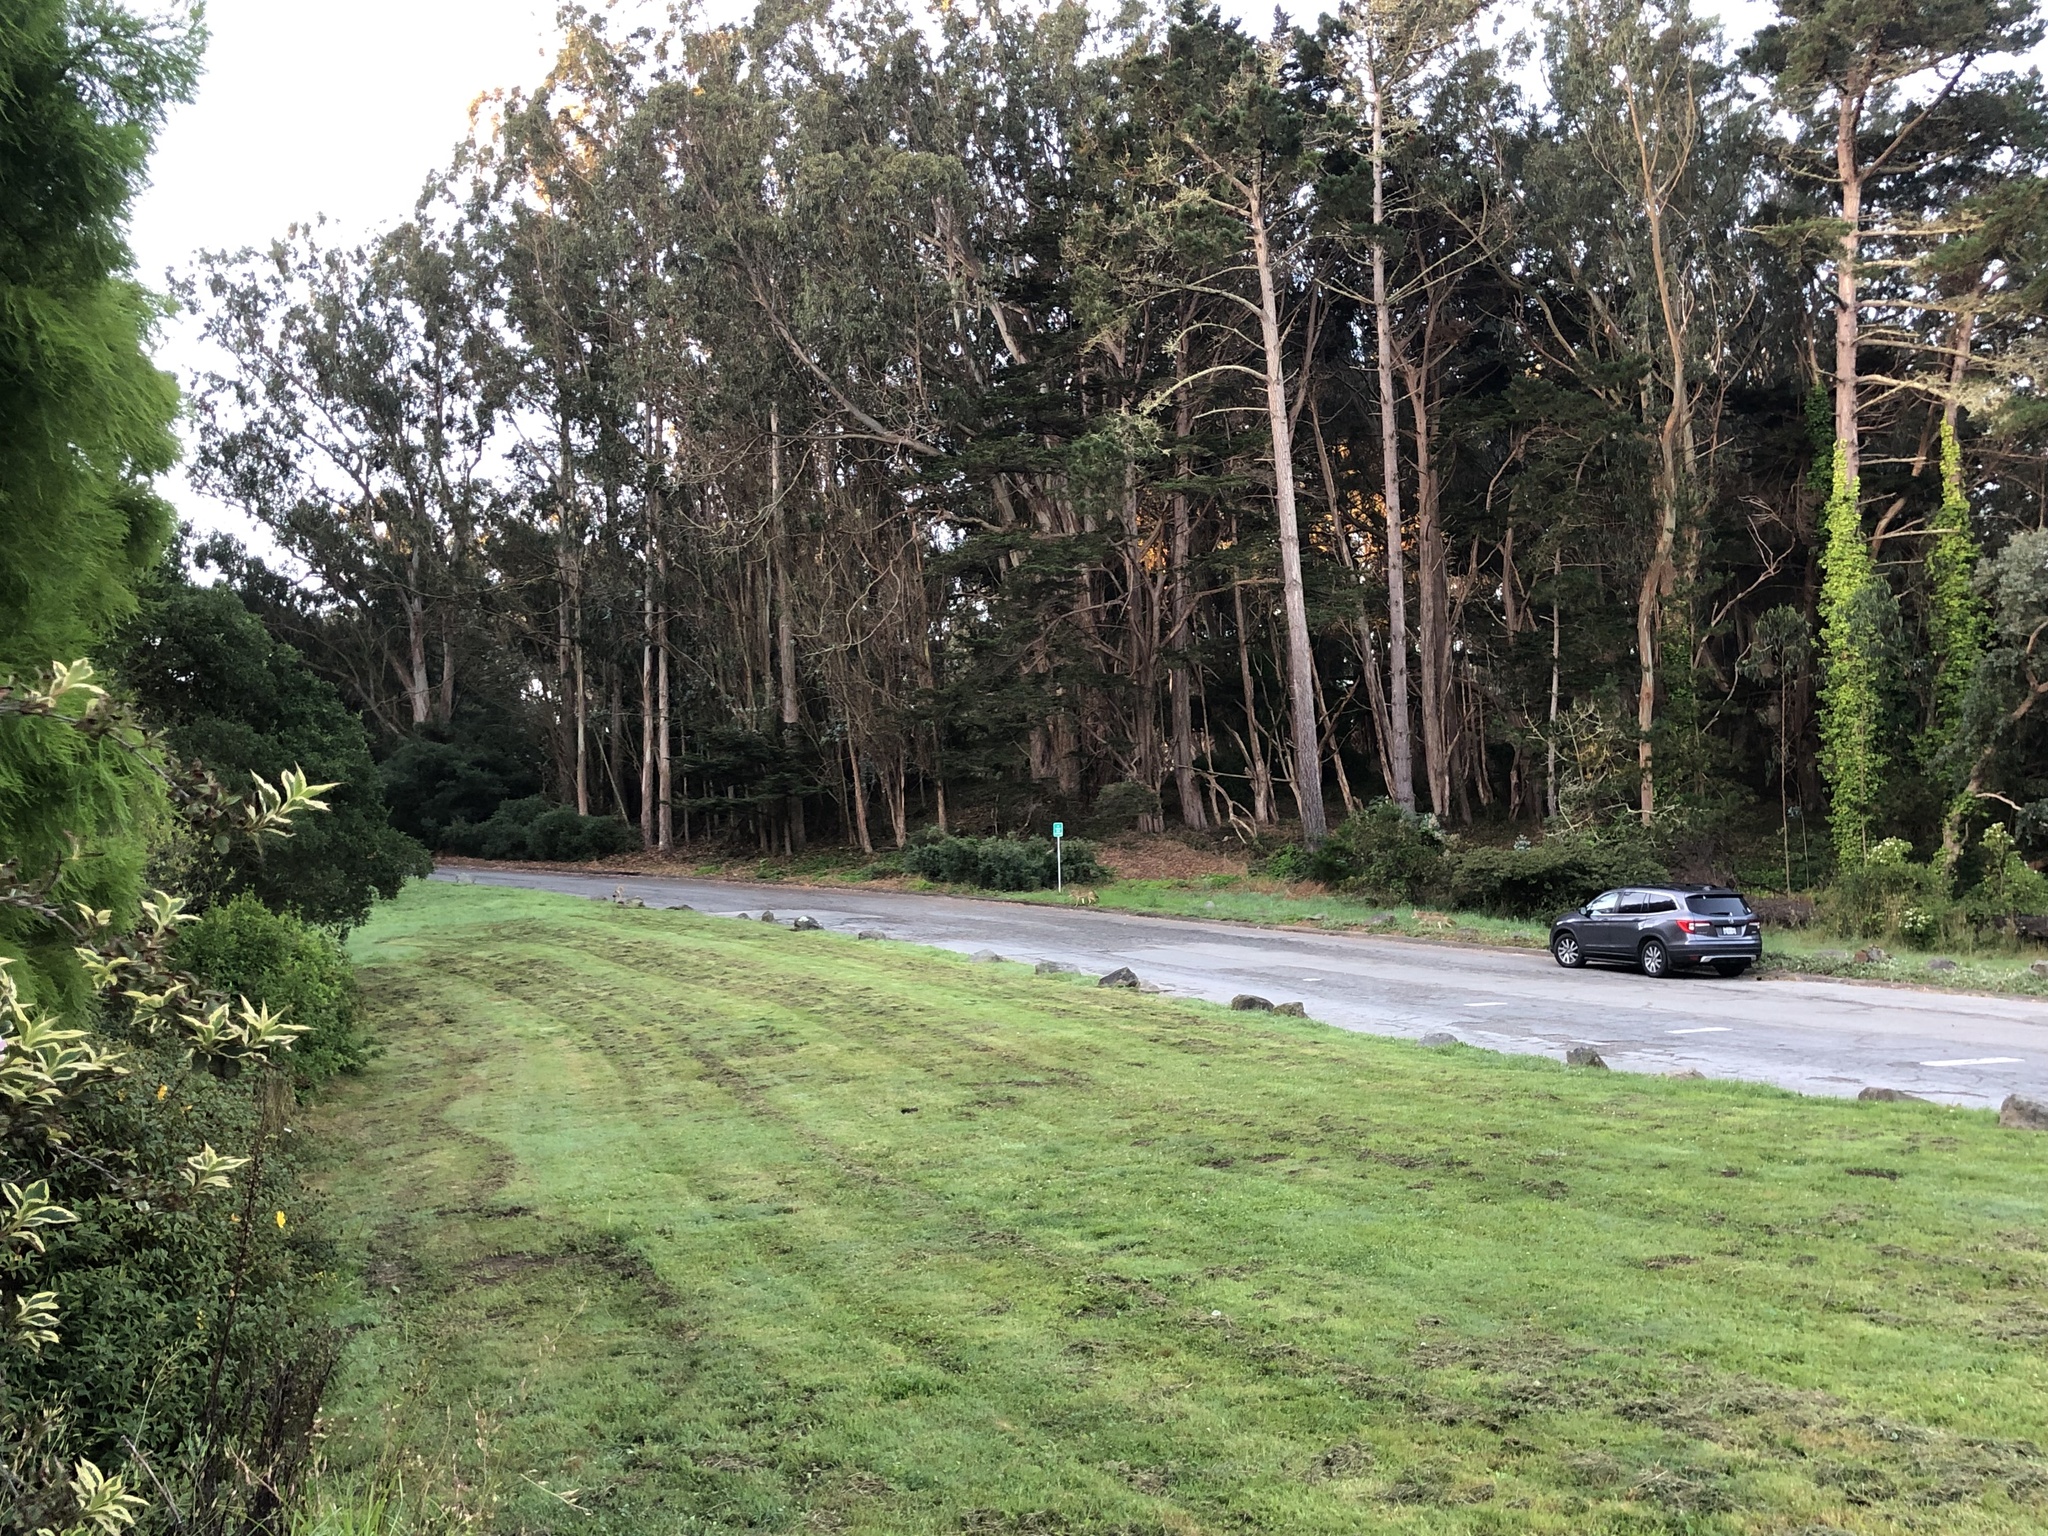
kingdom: Animalia
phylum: Chordata
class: Mammalia
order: Carnivora
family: Canidae
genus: Canis
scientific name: Canis latrans
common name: Coyote
